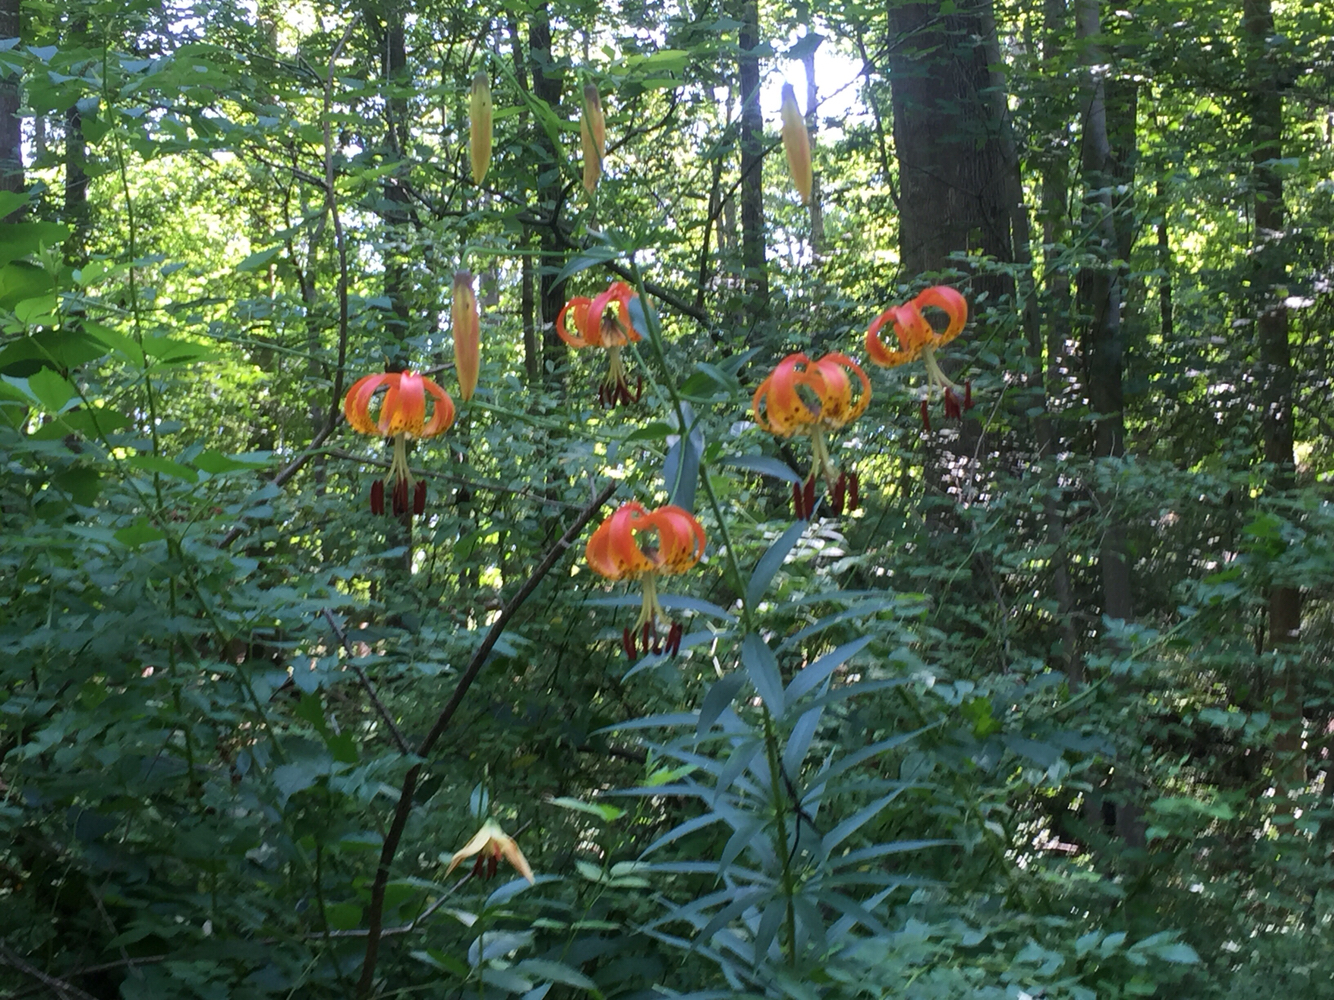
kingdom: Plantae
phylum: Tracheophyta
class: Liliopsida
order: Liliales
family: Liliaceae
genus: Lilium
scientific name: Lilium superbum
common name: American turk's-cap lily
